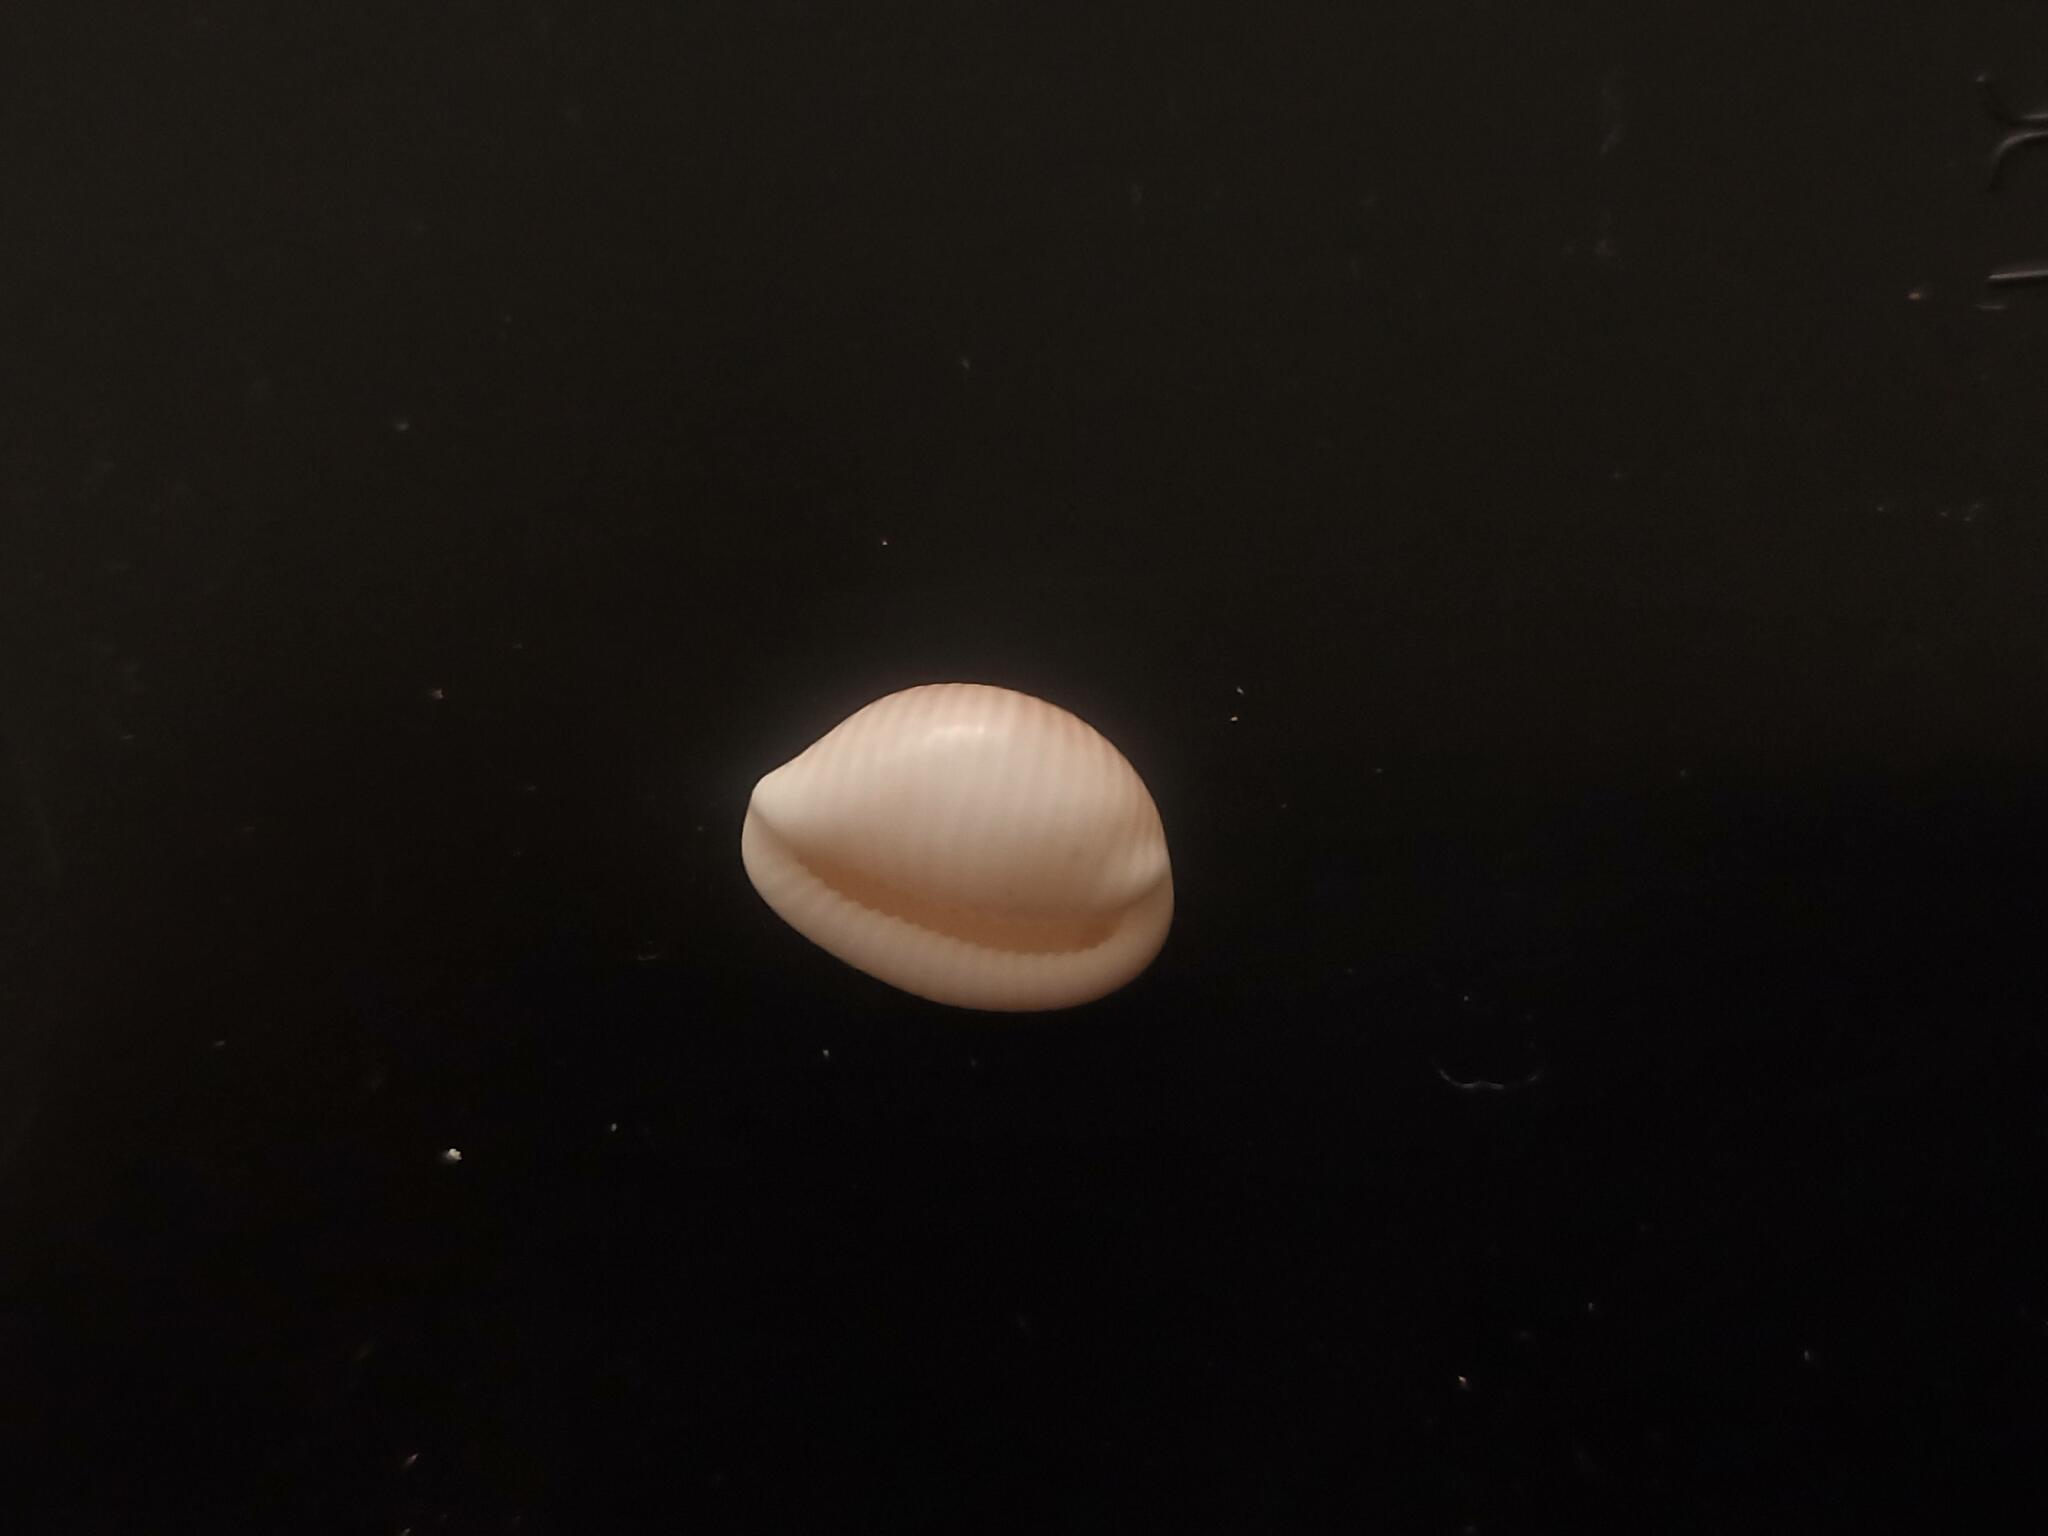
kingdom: Animalia
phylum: Mollusca
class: Gastropoda
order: Littorinimorpha
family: Triviidae
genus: Trivia
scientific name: Trivia monacha
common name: Spotted cowrie
